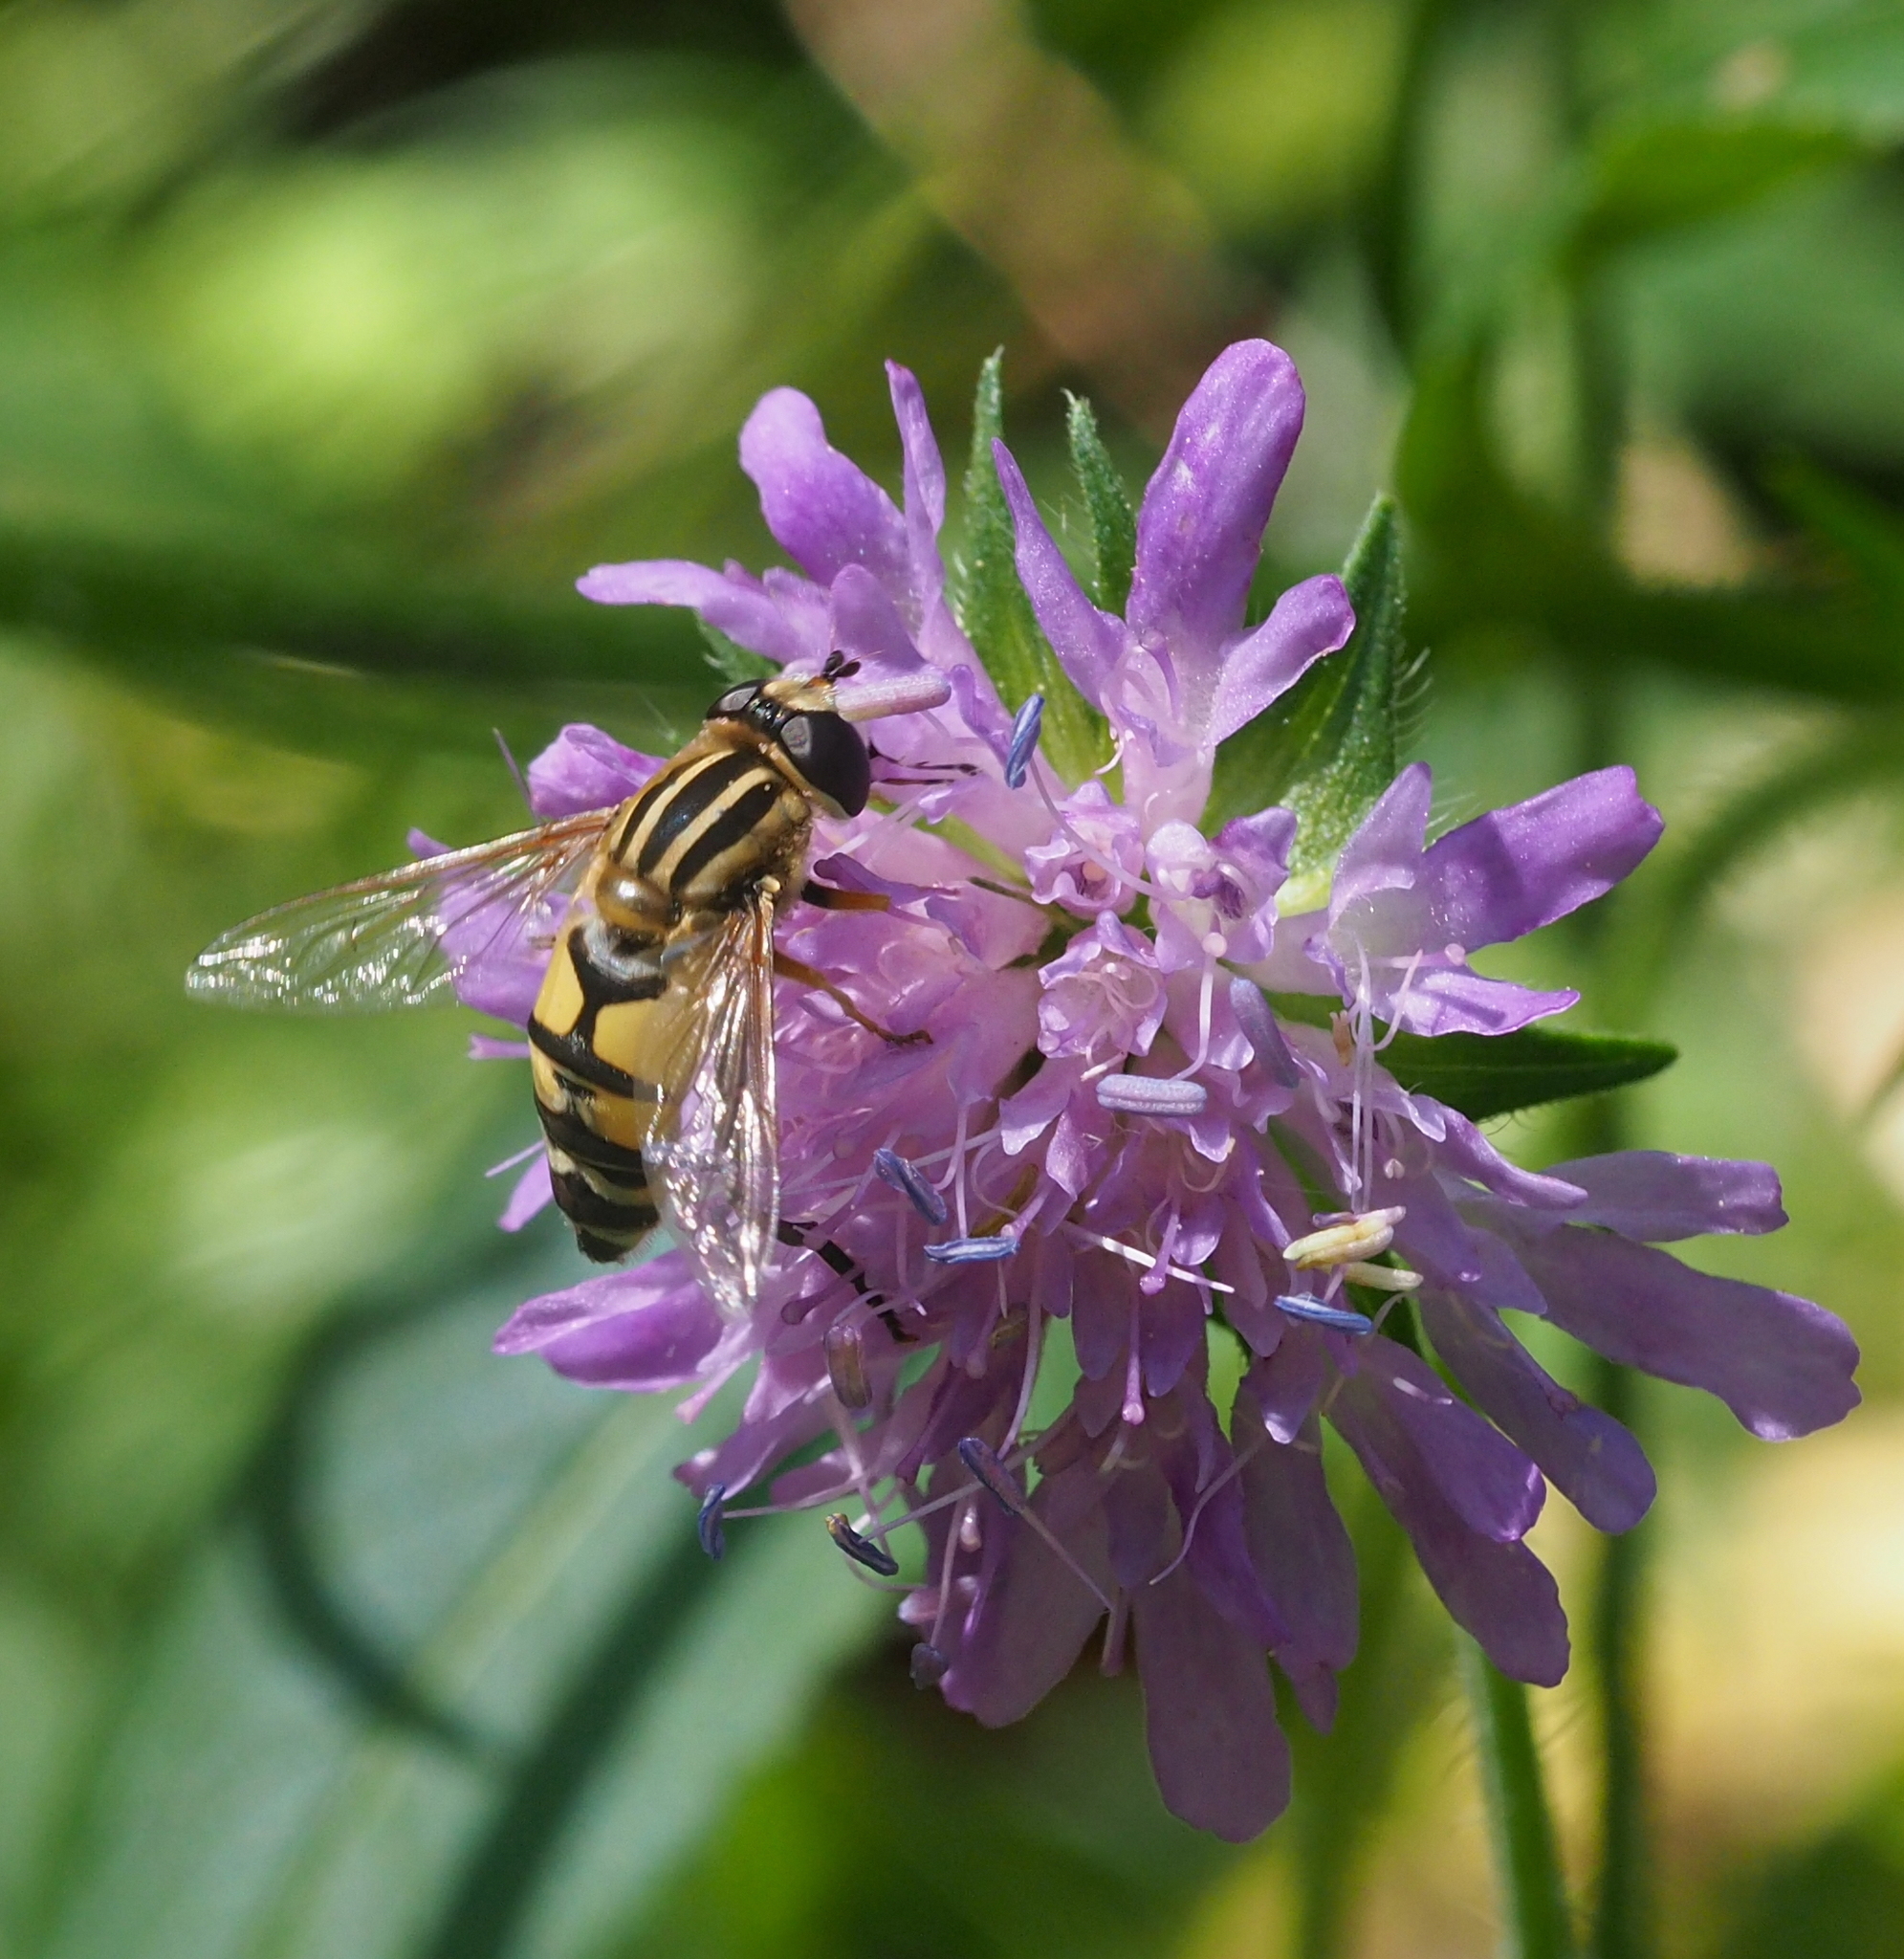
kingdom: Animalia
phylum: Arthropoda
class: Insecta
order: Diptera
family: Syrphidae
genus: Helophilus
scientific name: Helophilus trivittatus
